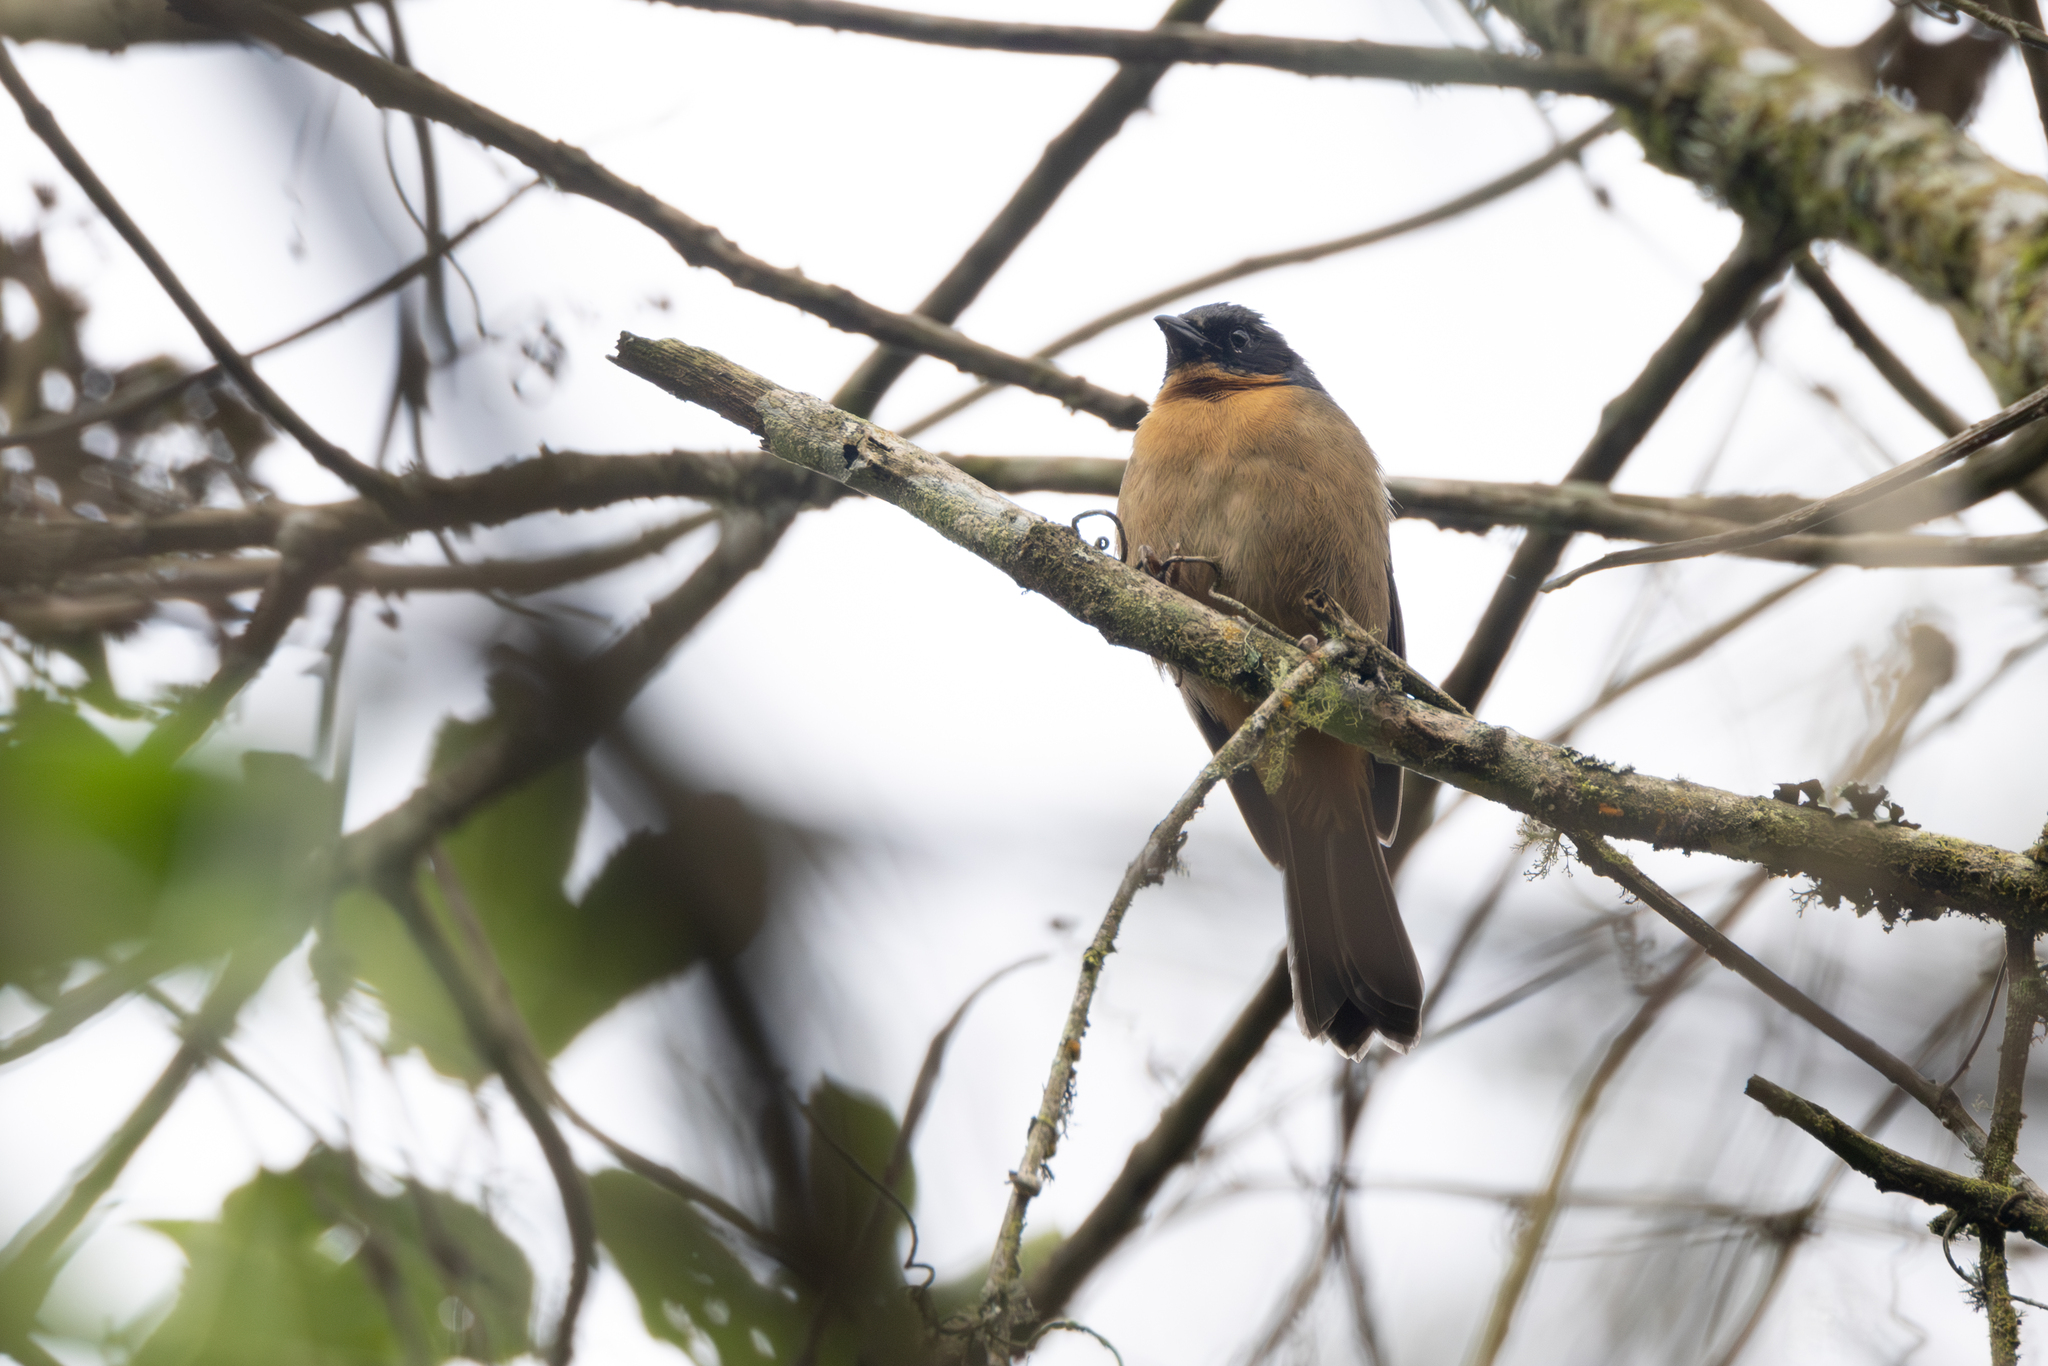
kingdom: Animalia
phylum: Chordata
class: Aves
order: Passeriformes
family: Thraupidae
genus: Sphenopsis
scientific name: Sphenopsis melanotis
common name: Black-eared hemispingus
